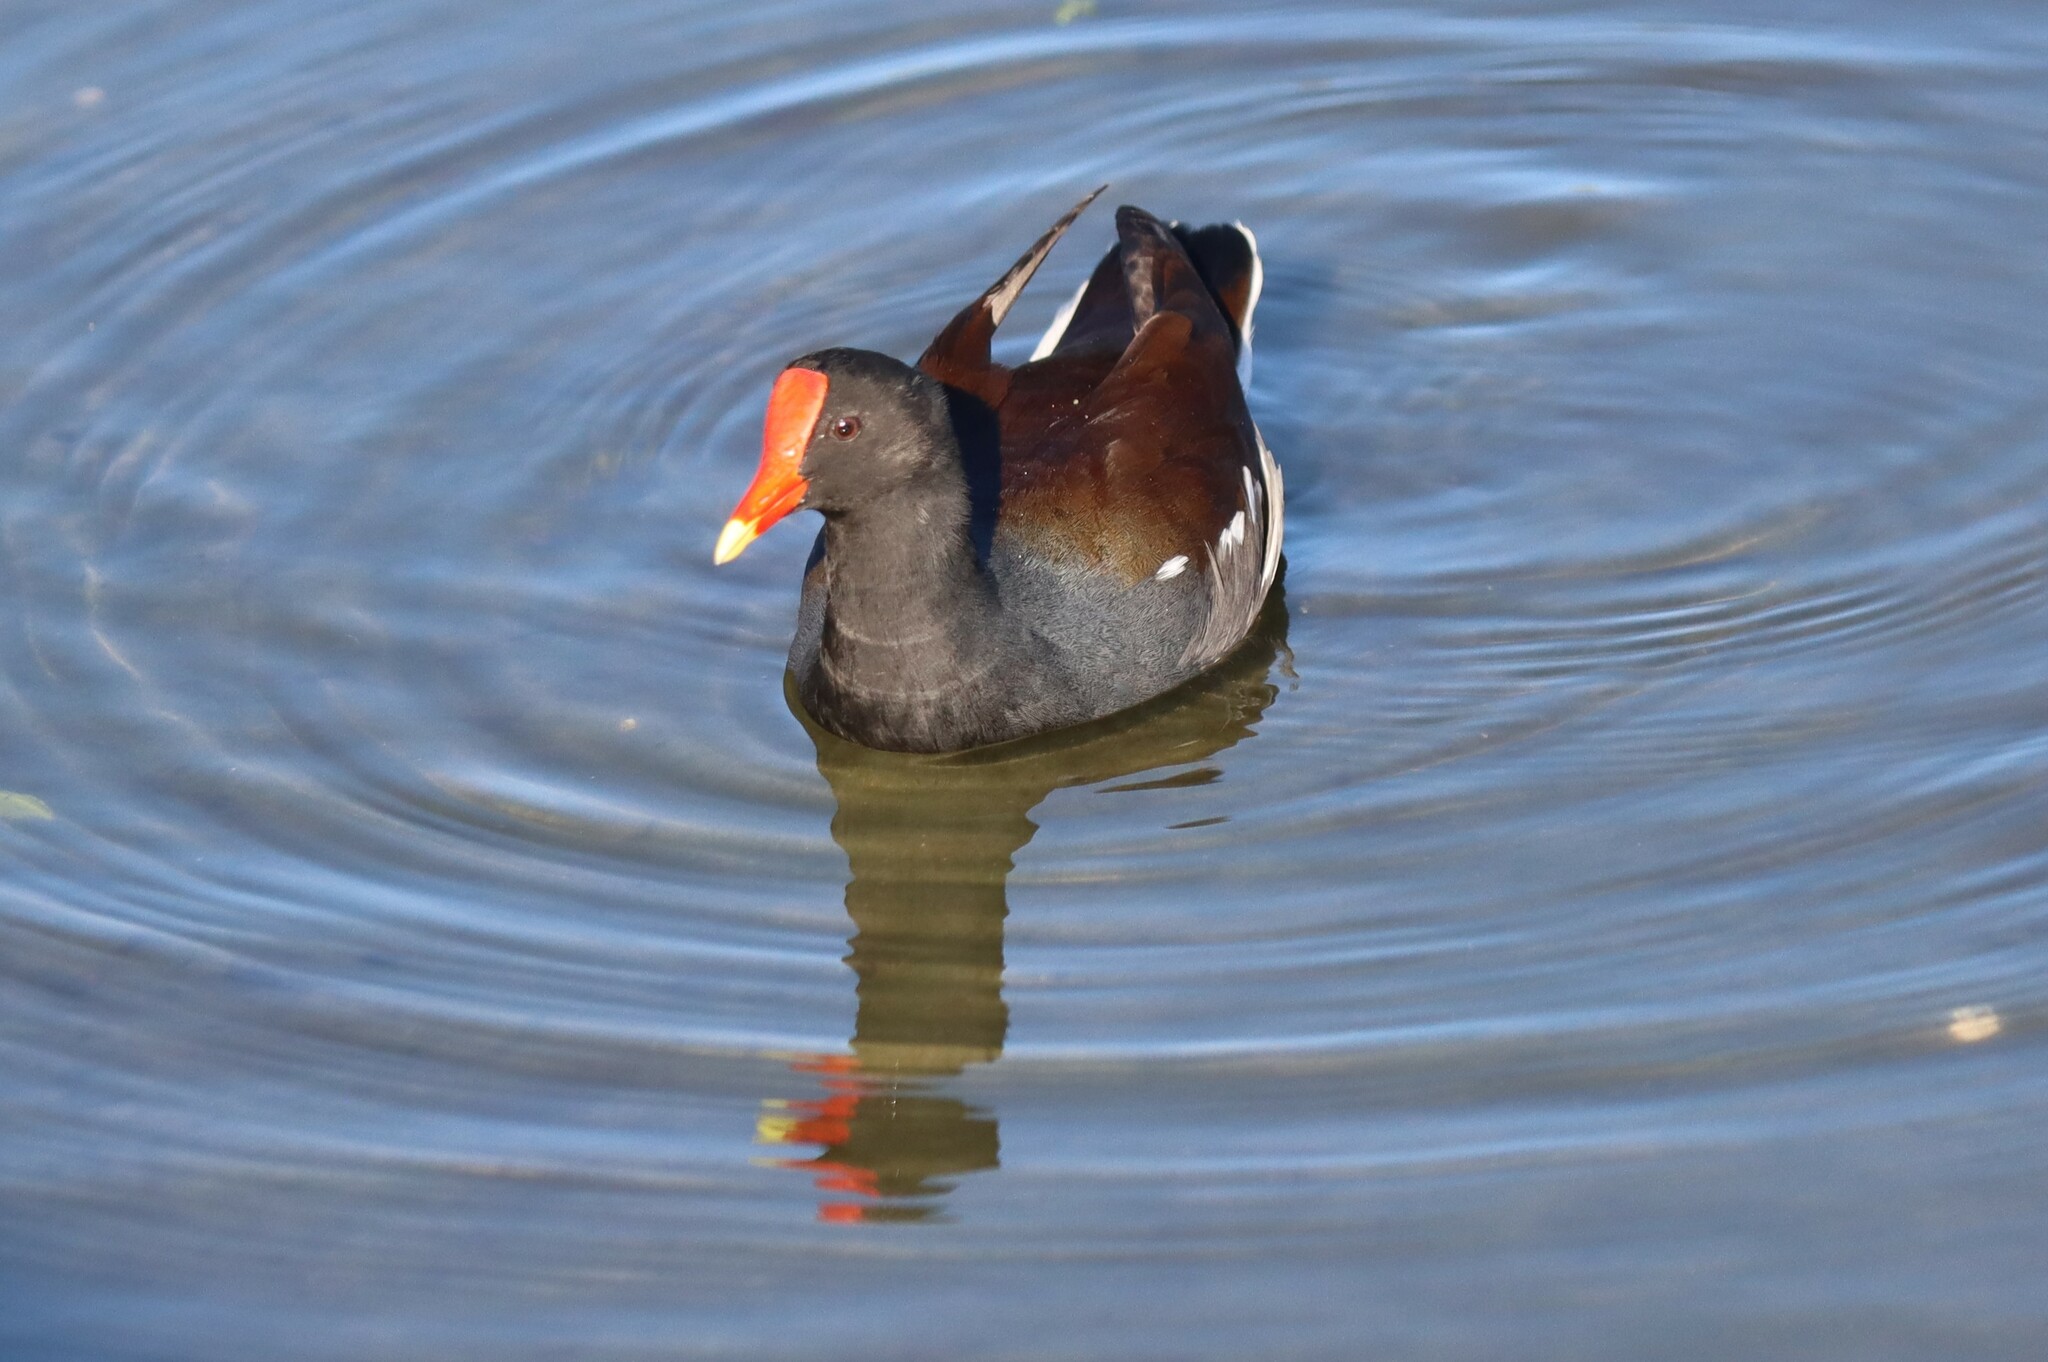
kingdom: Animalia
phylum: Chordata
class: Aves
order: Gruiformes
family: Rallidae
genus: Gallinula
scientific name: Gallinula chloropus
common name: Common moorhen
